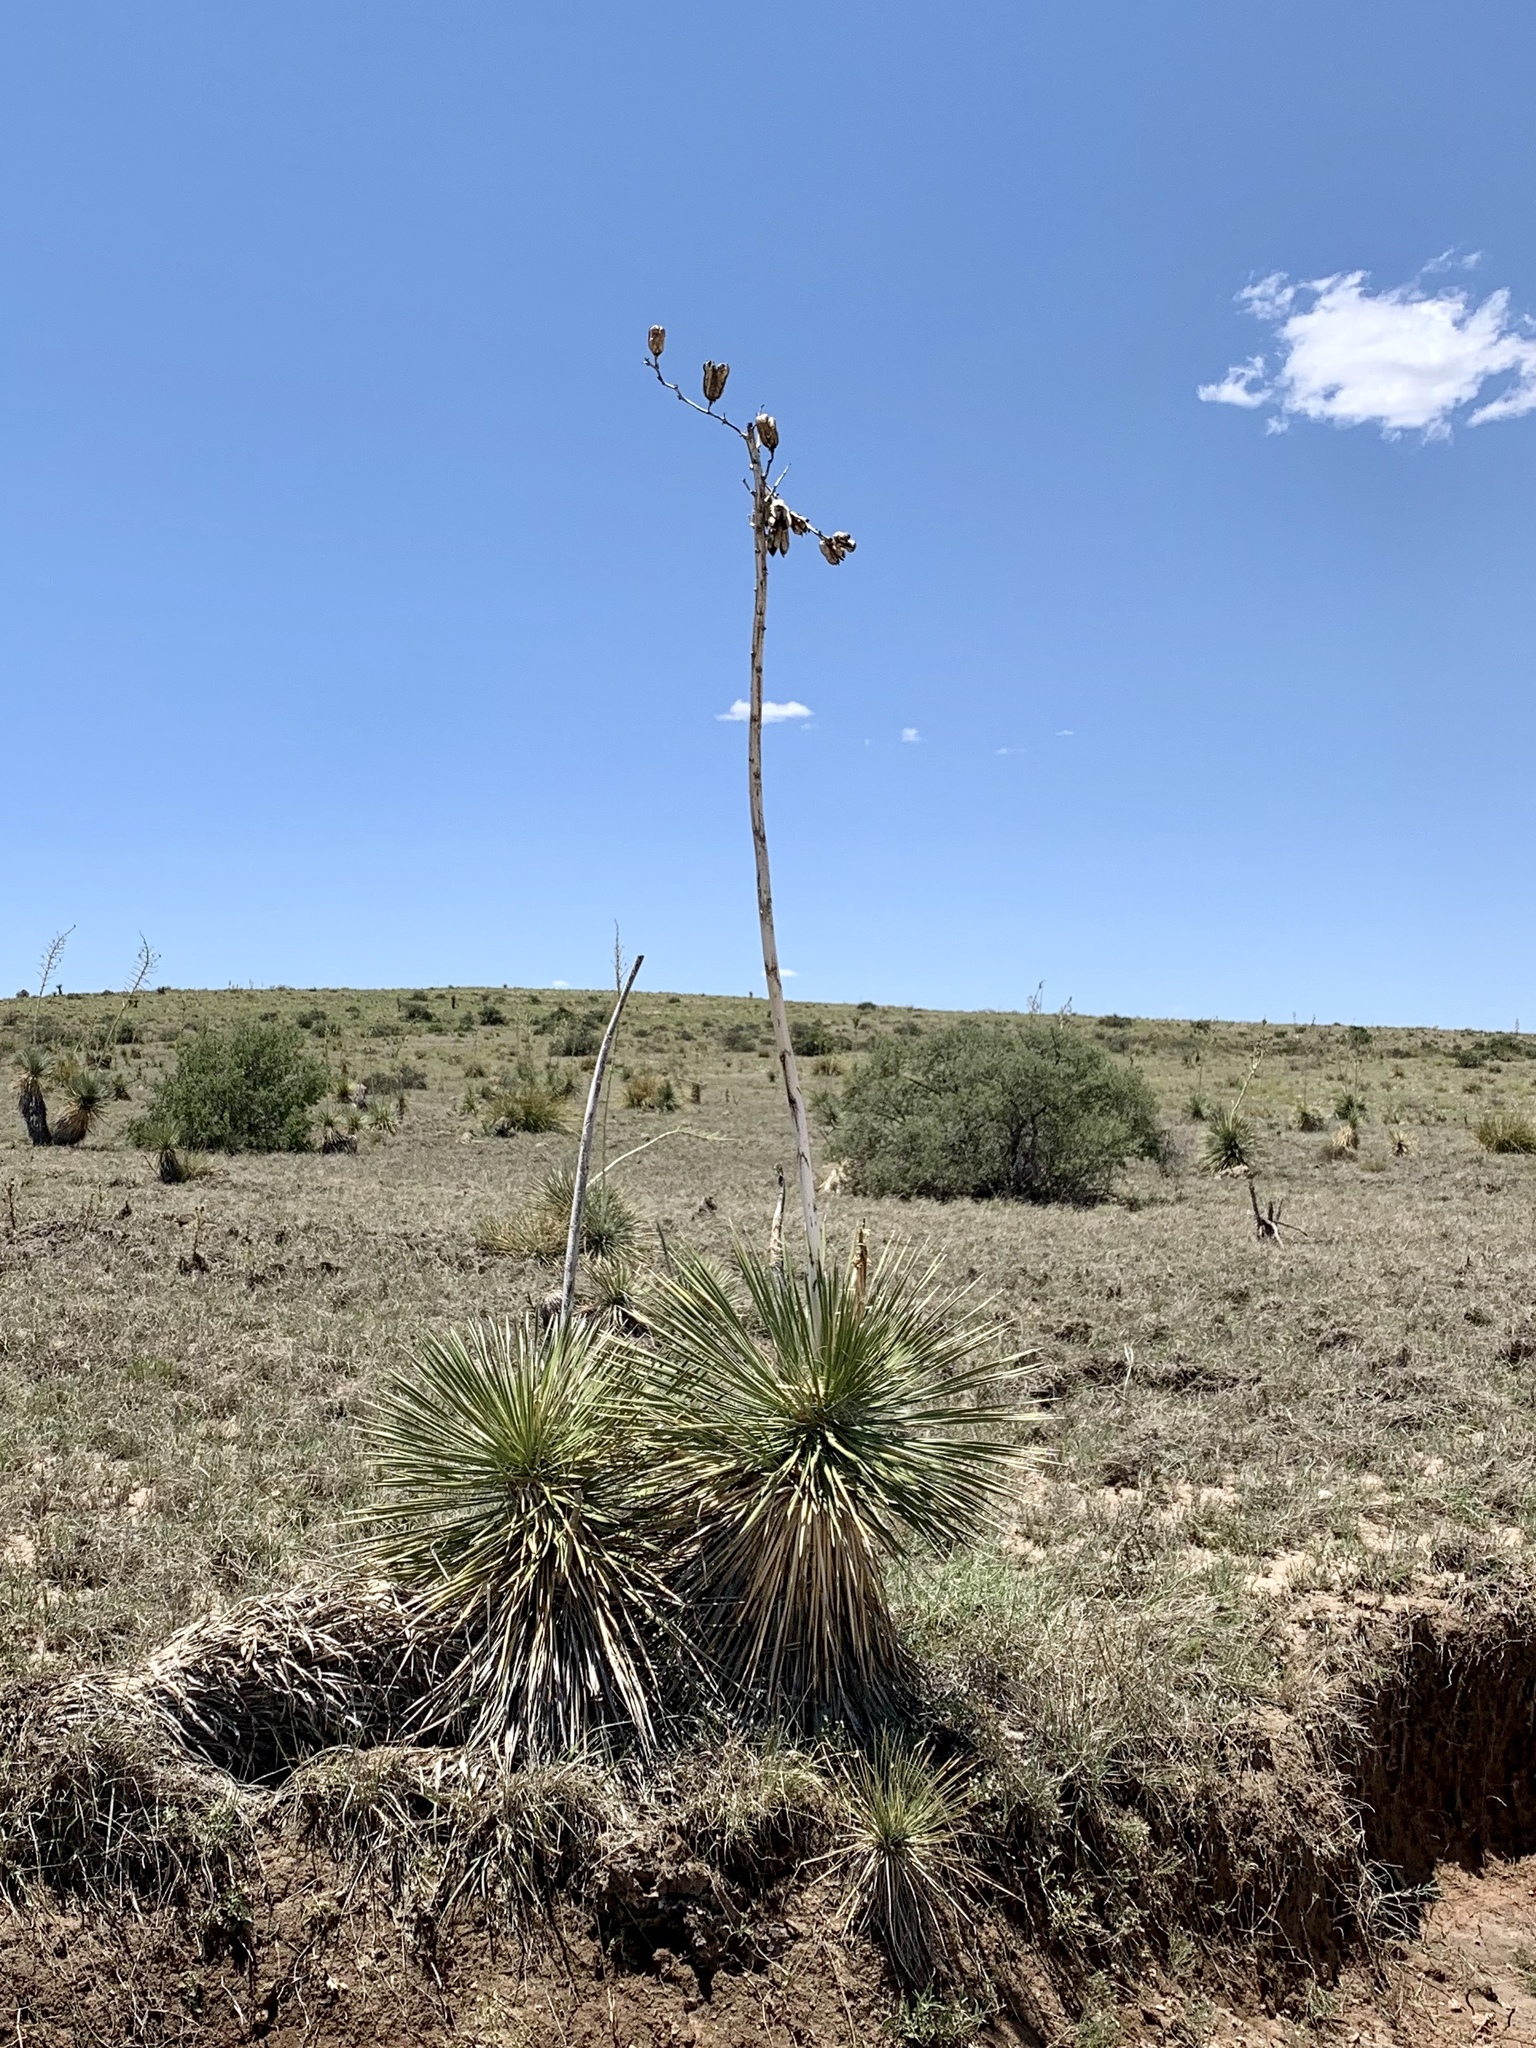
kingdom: Plantae
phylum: Tracheophyta
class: Liliopsida
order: Asparagales
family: Asparagaceae
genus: Yucca
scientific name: Yucca elata
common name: Palmella
